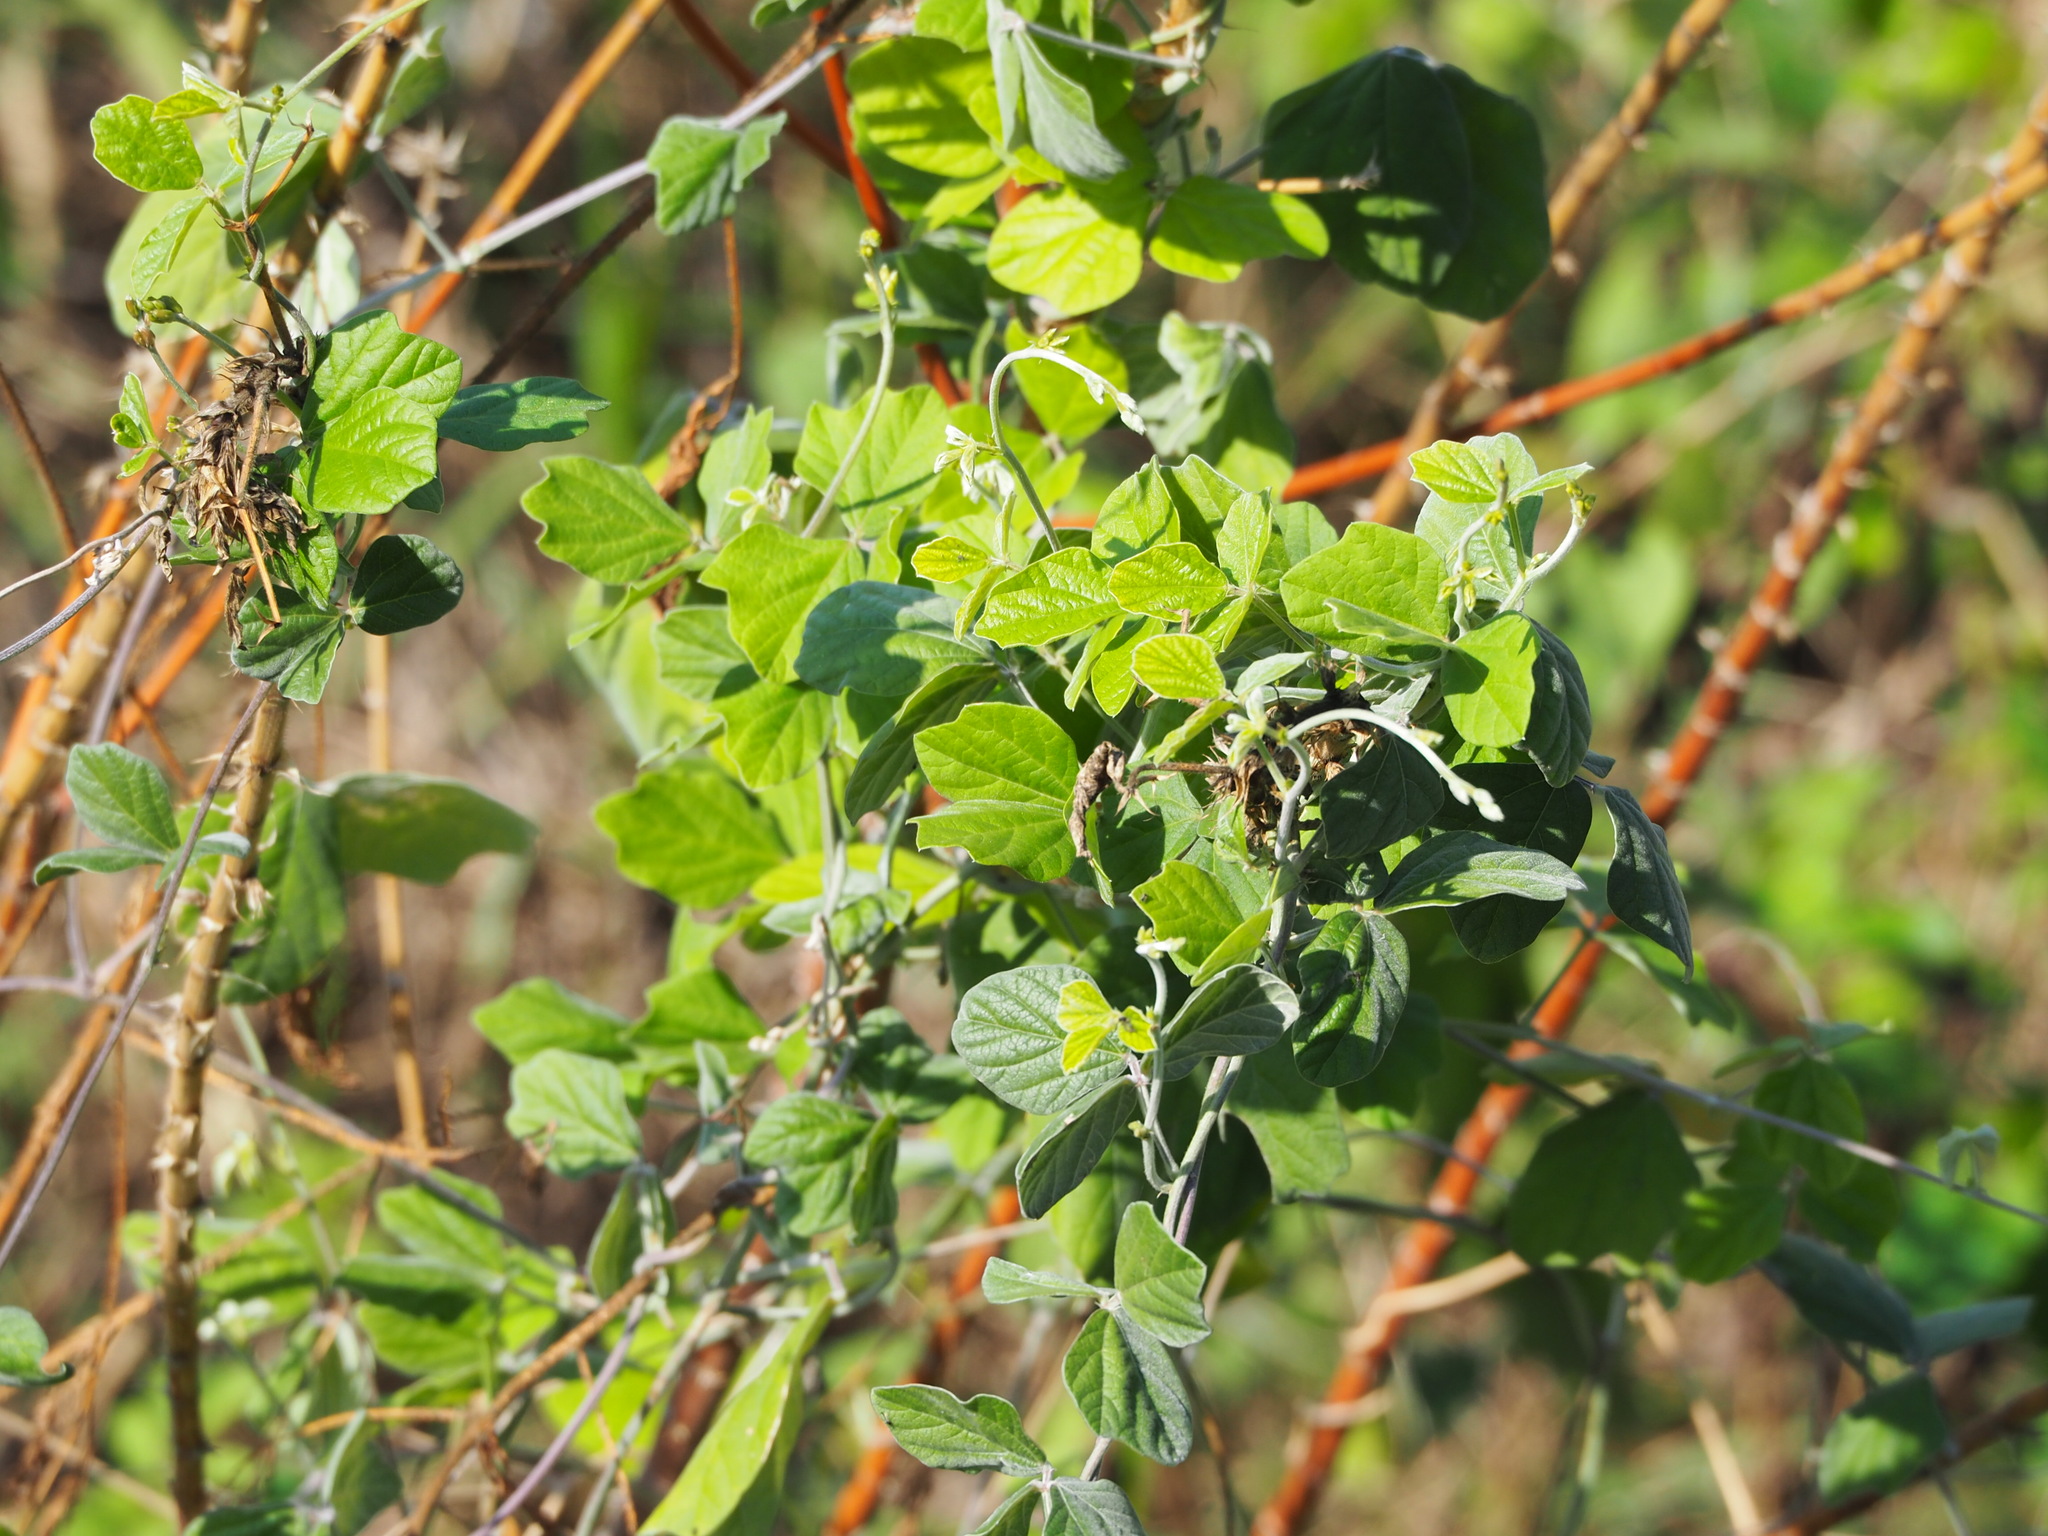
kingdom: Plantae
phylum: Tracheophyta
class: Magnoliopsida
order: Fabales
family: Fabaceae
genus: Macroptilium
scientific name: Macroptilium atropurpureum
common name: Purple bushbean
